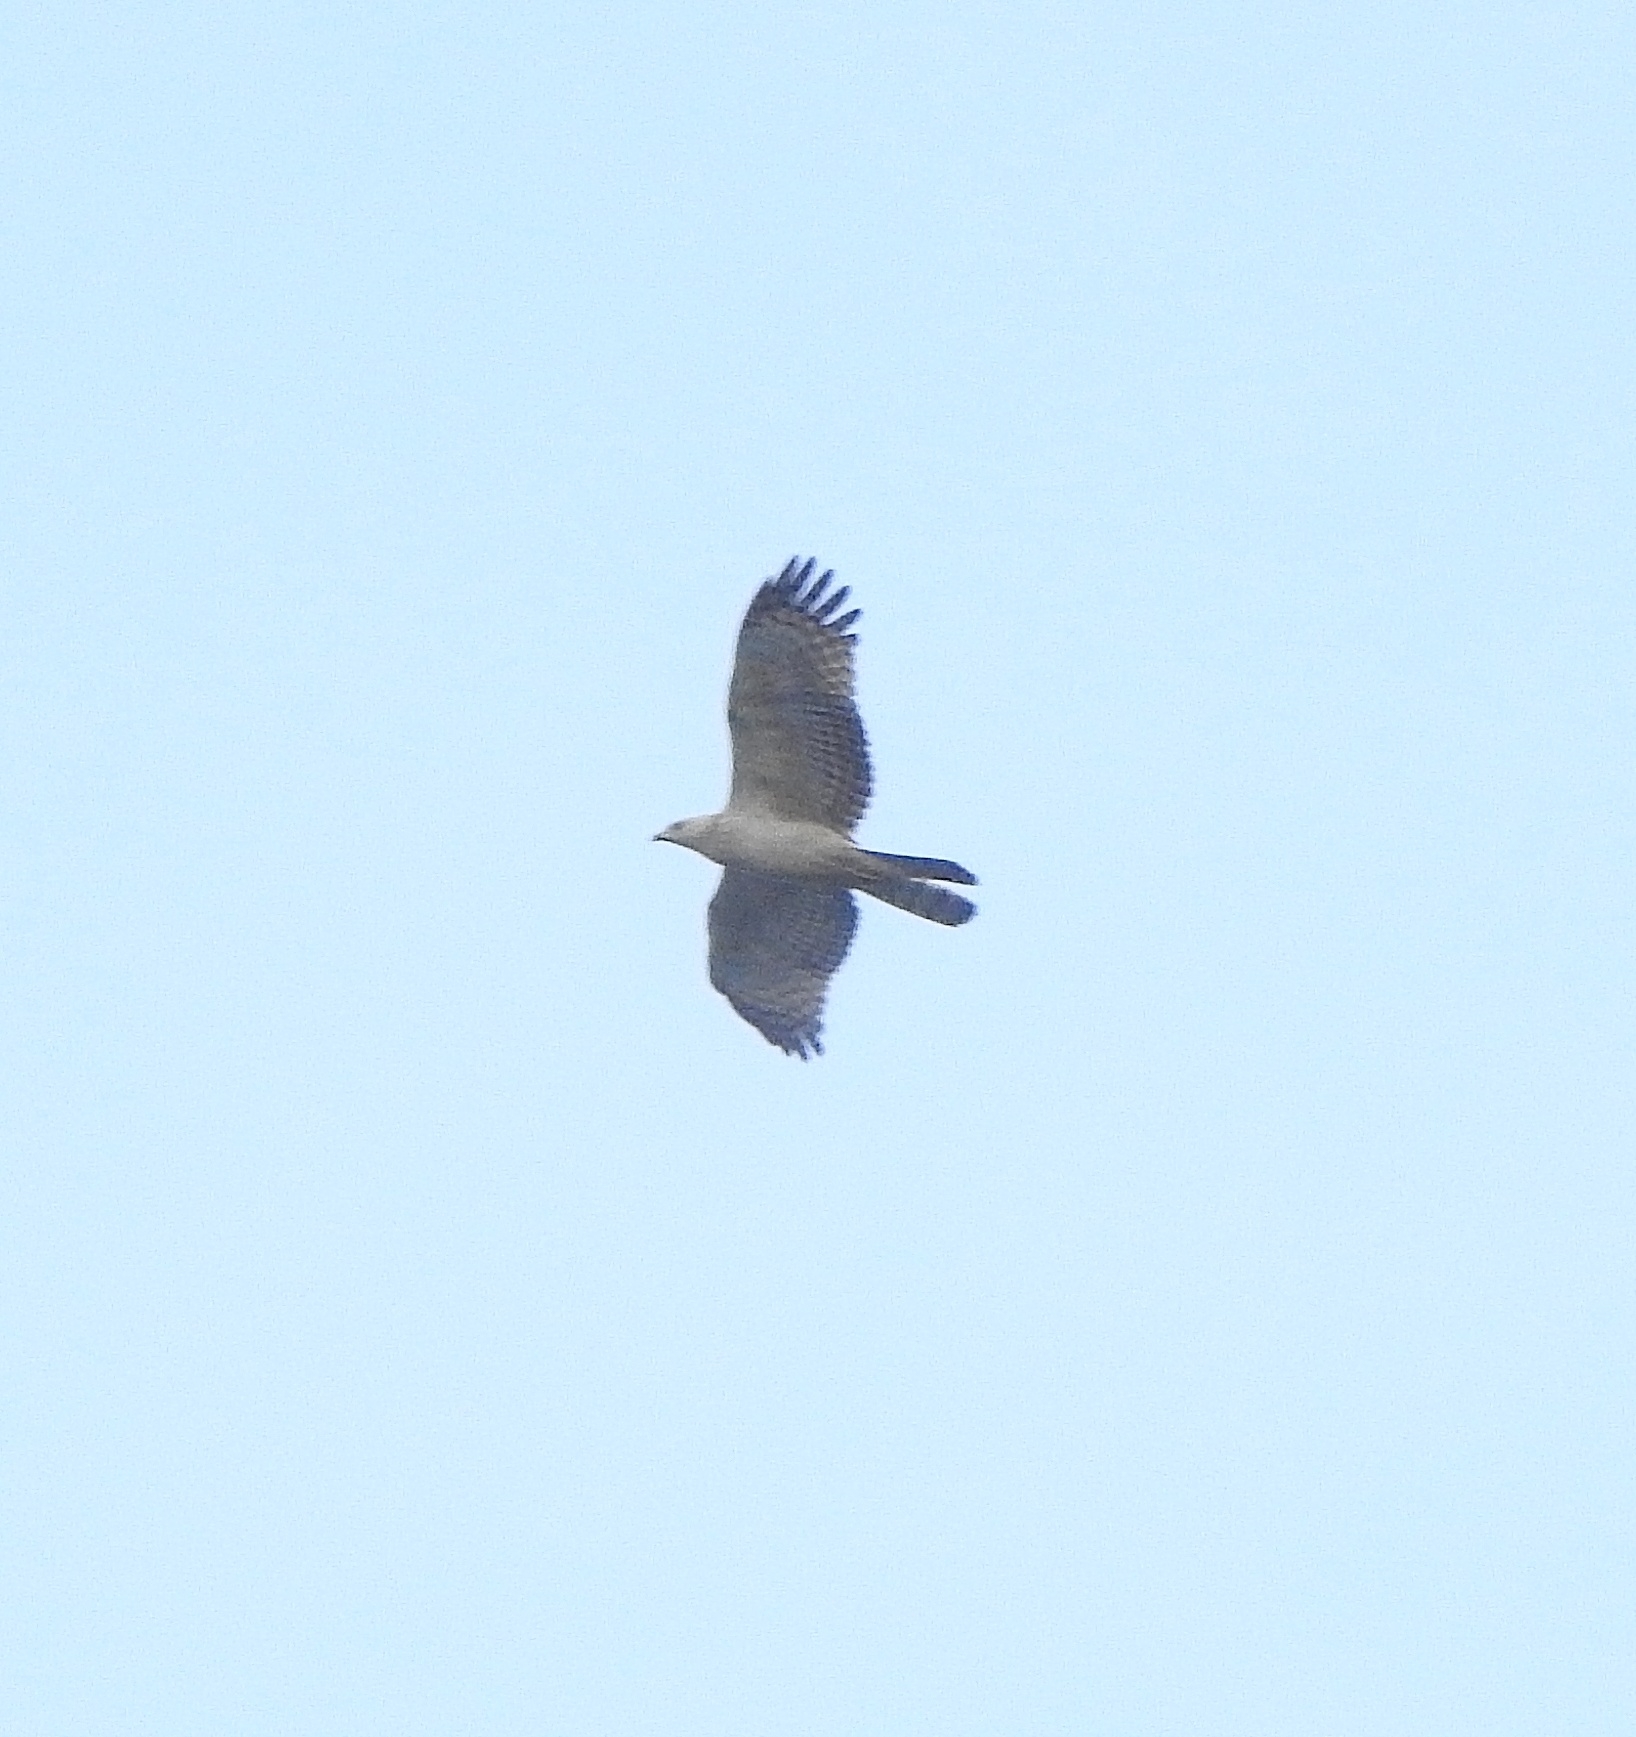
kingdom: Animalia
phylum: Chordata
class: Aves
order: Accipitriformes
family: Accipitridae
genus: Pernis
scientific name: Pernis ptilorhynchus
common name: Crested honey buzzard
